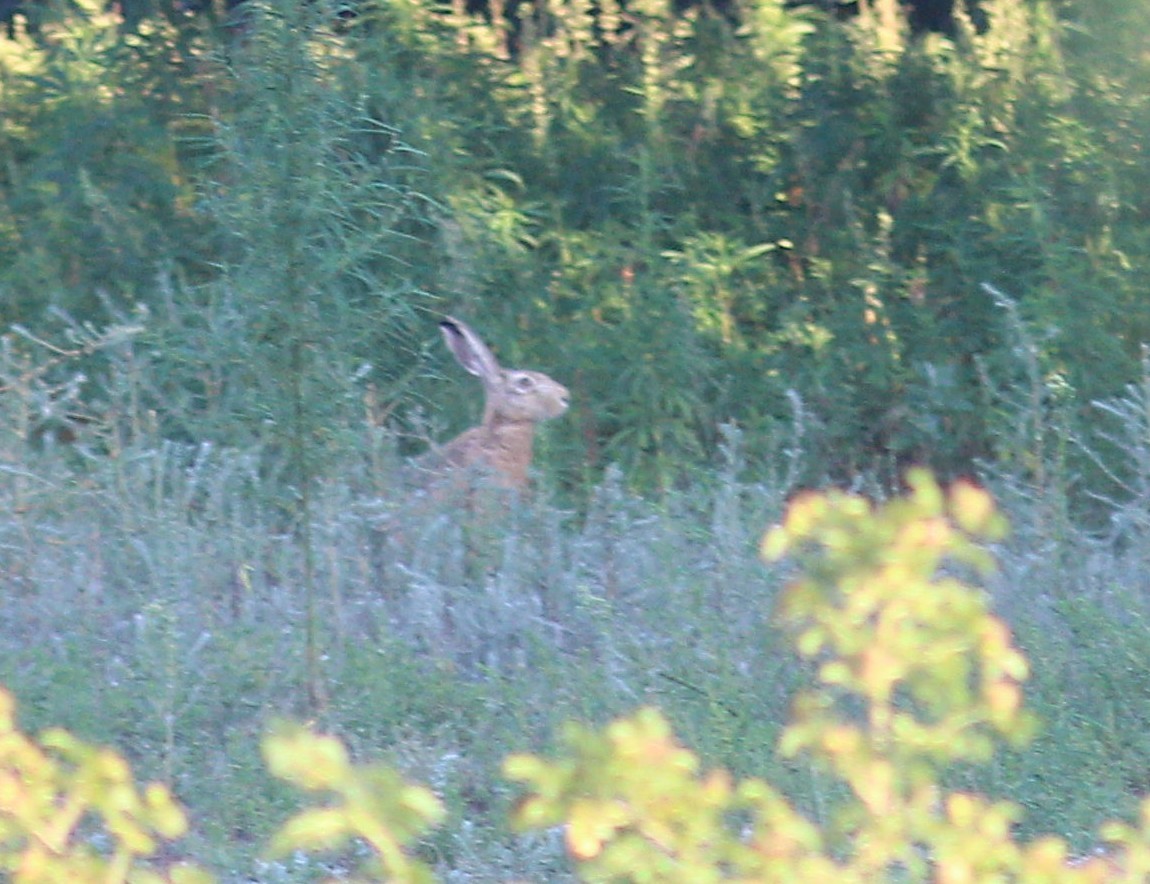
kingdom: Animalia
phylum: Chordata
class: Mammalia
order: Lagomorpha
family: Leporidae
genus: Lepus
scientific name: Lepus europaeus
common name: European hare
